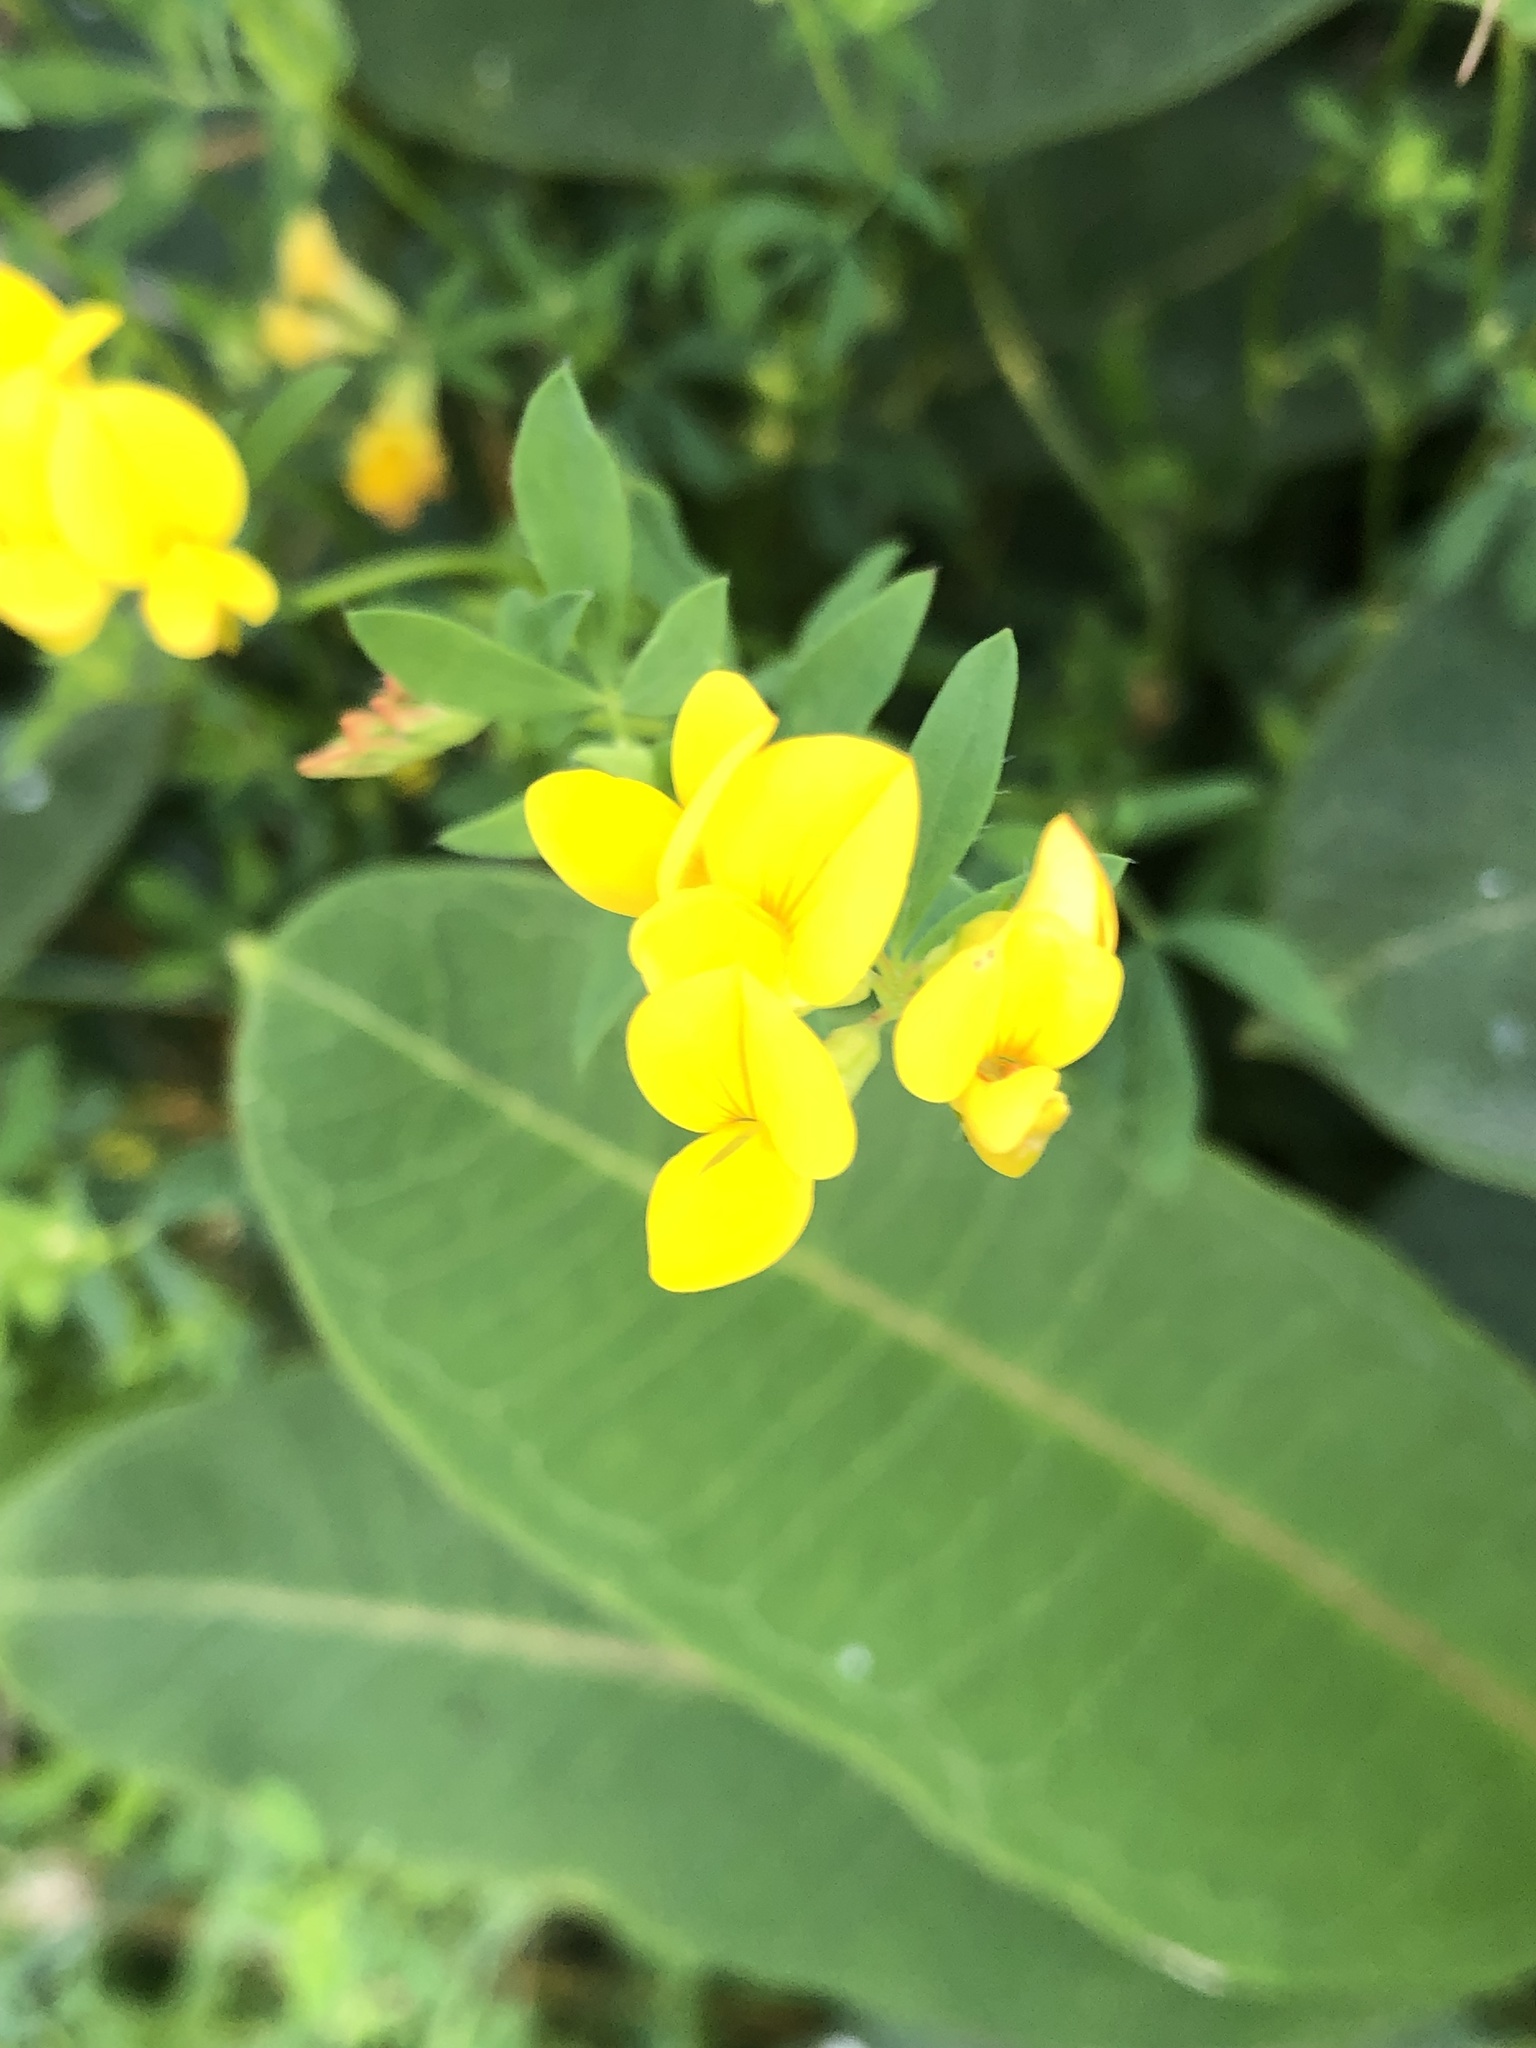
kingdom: Plantae
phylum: Tracheophyta
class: Magnoliopsida
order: Fabales
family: Fabaceae
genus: Lotus
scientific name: Lotus corniculatus
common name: Common bird's-foot-trefoil
